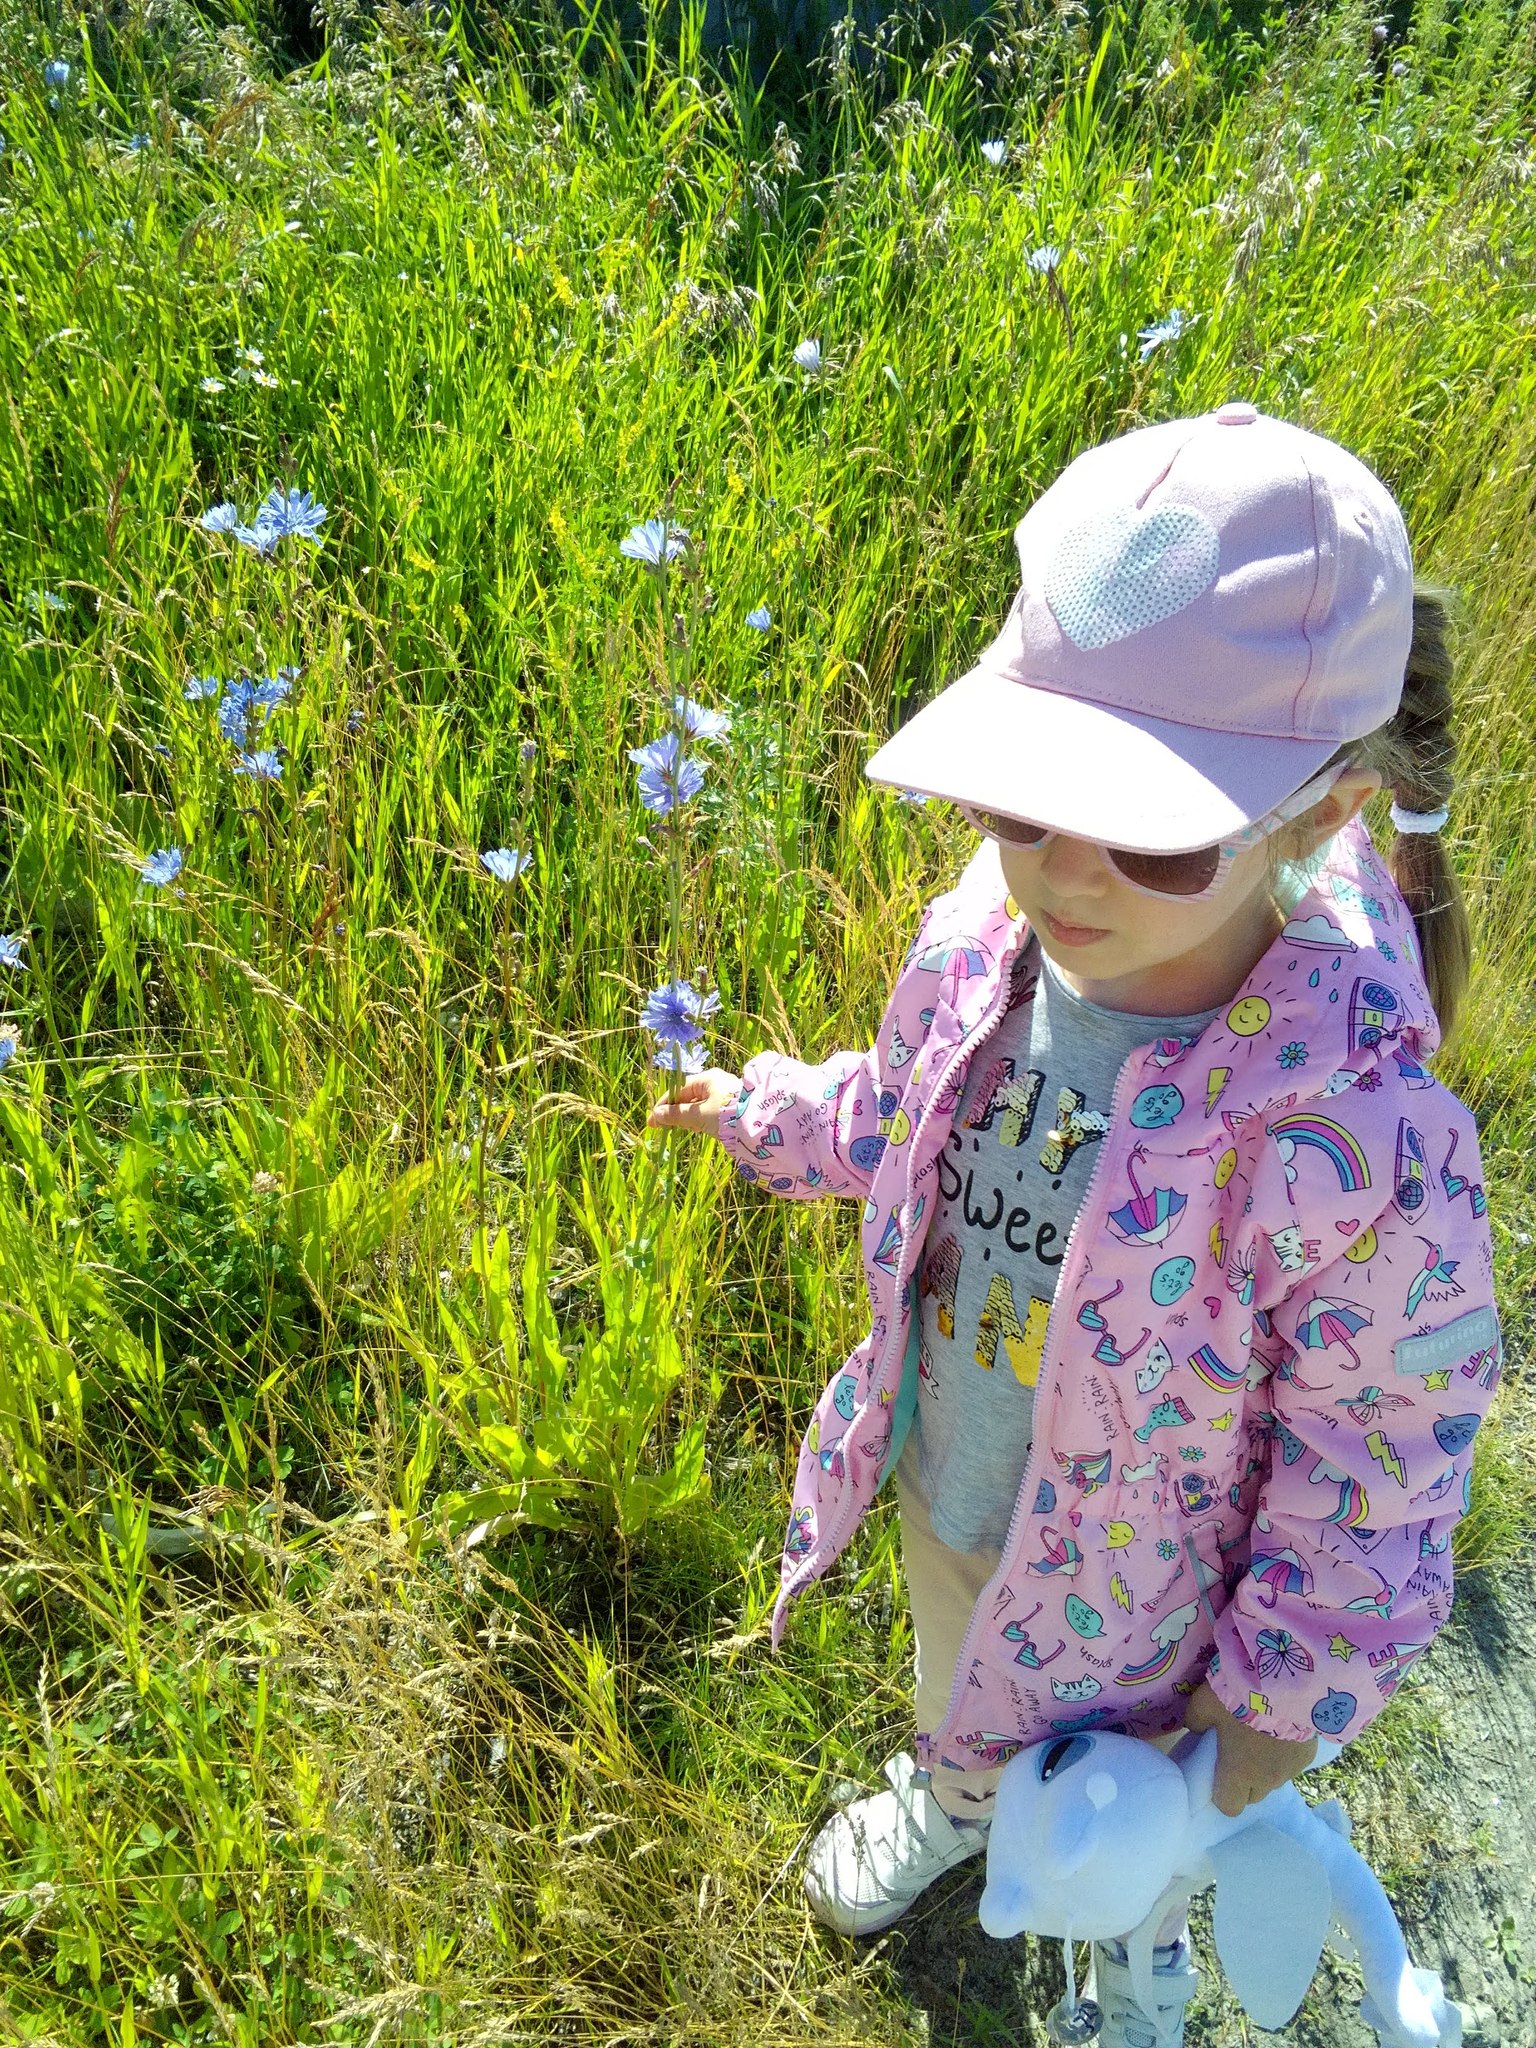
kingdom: Plantae
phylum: Tracheophyta
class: Magnoliopsida
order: Asterales
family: Asteraceae
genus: Cichorium
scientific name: Cichorium intybus
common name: Chicory
